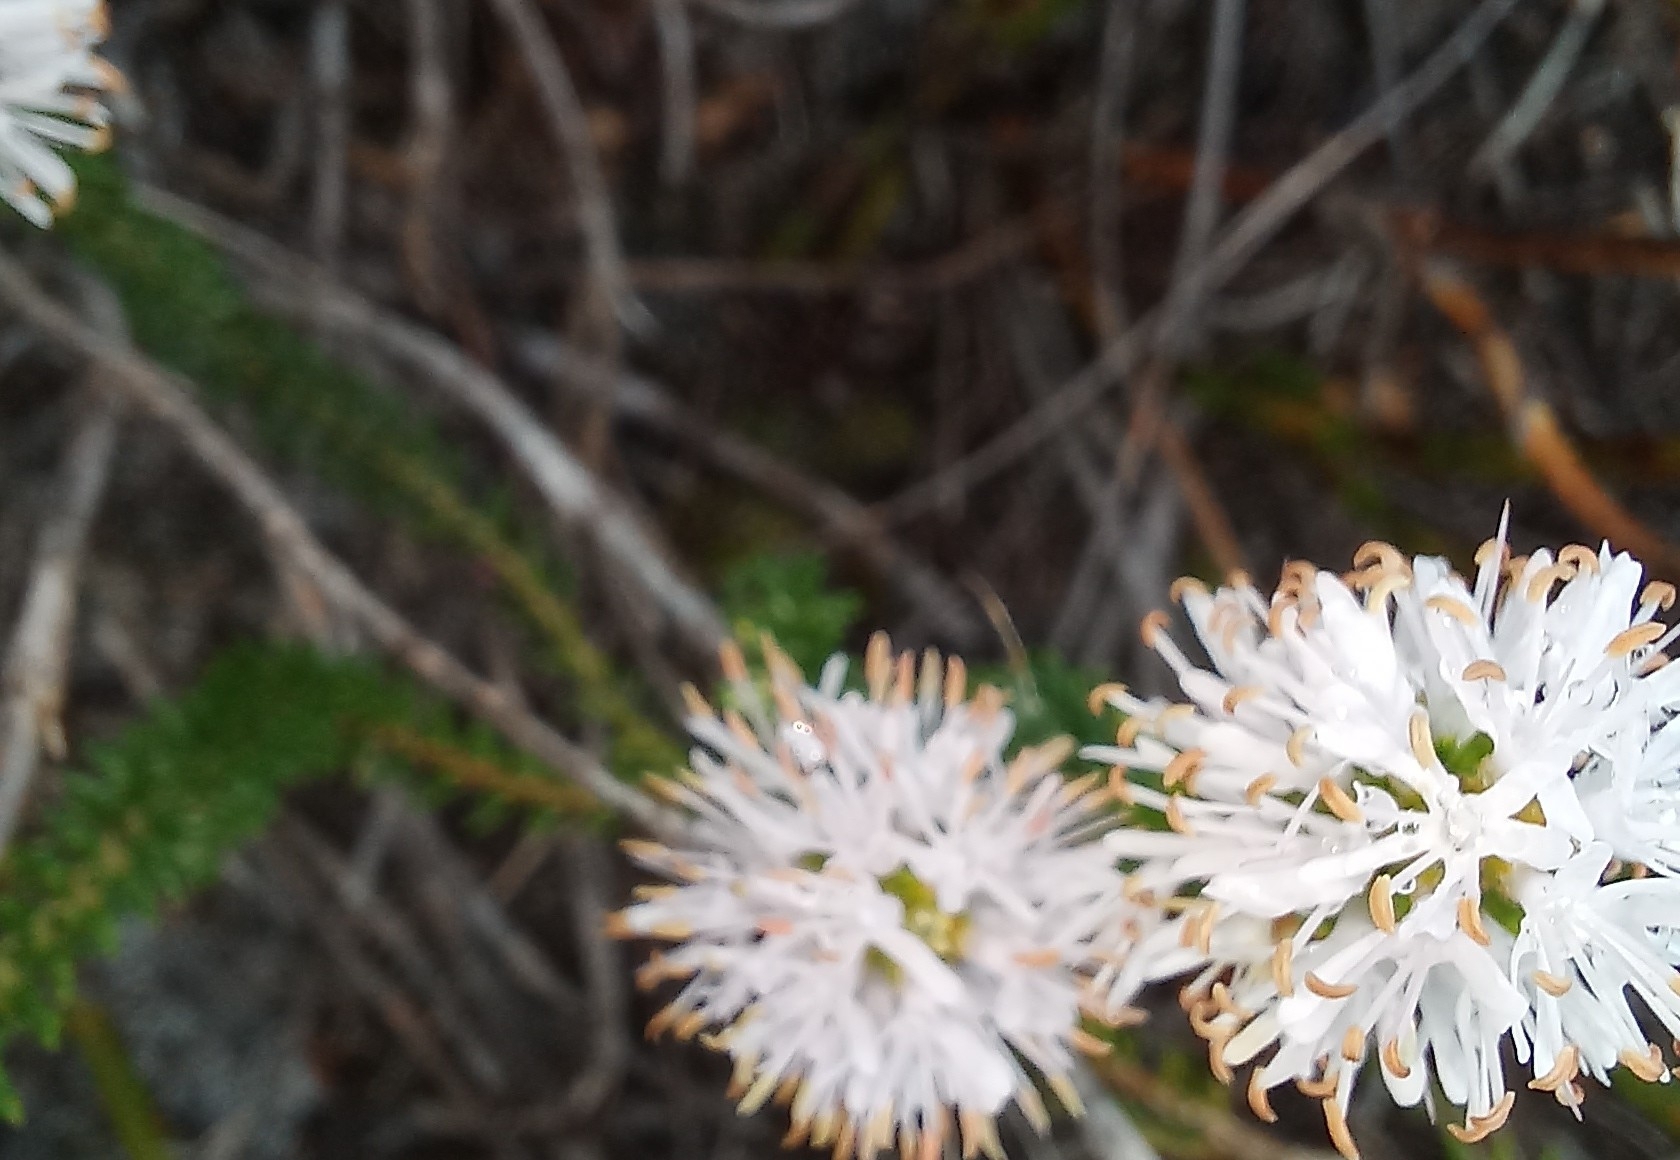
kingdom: Plantae
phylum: Tracheophyta
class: Magnoliopsida
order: Lamiales
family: Stilbaceae
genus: Stilbe
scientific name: Stilbe ericoides
